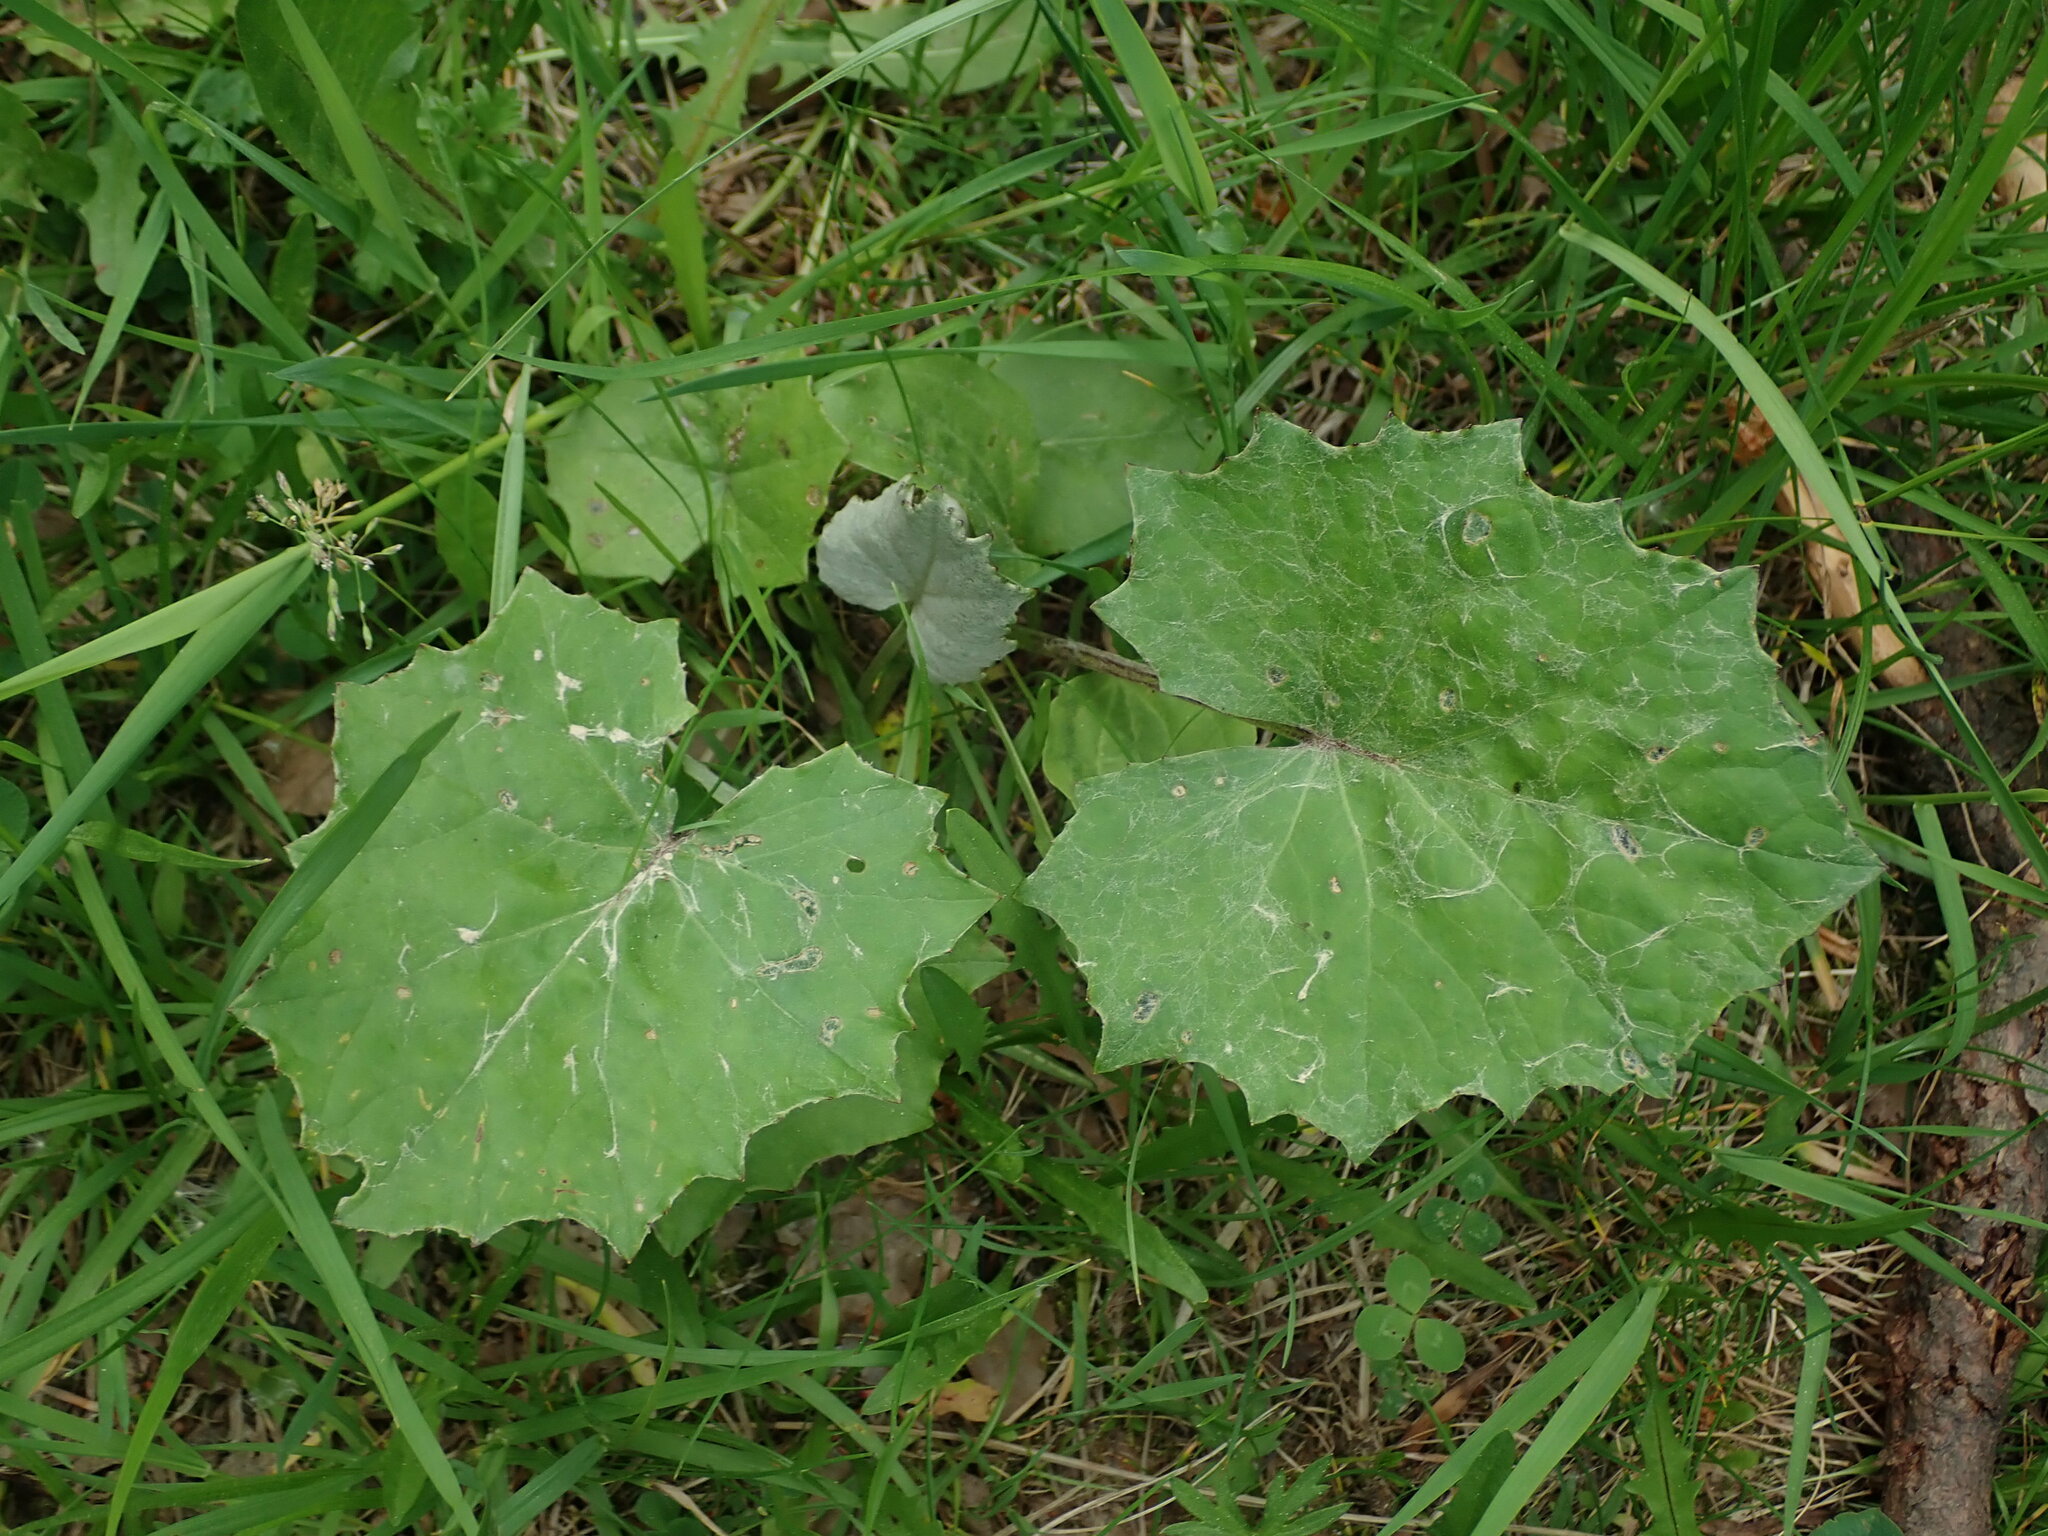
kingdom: Plantae
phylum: Tracheophyta
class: Magnoliopsida
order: Asterales
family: Asteraceae
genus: Tussilago
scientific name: Tussilago farfara
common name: Coltsfoot
